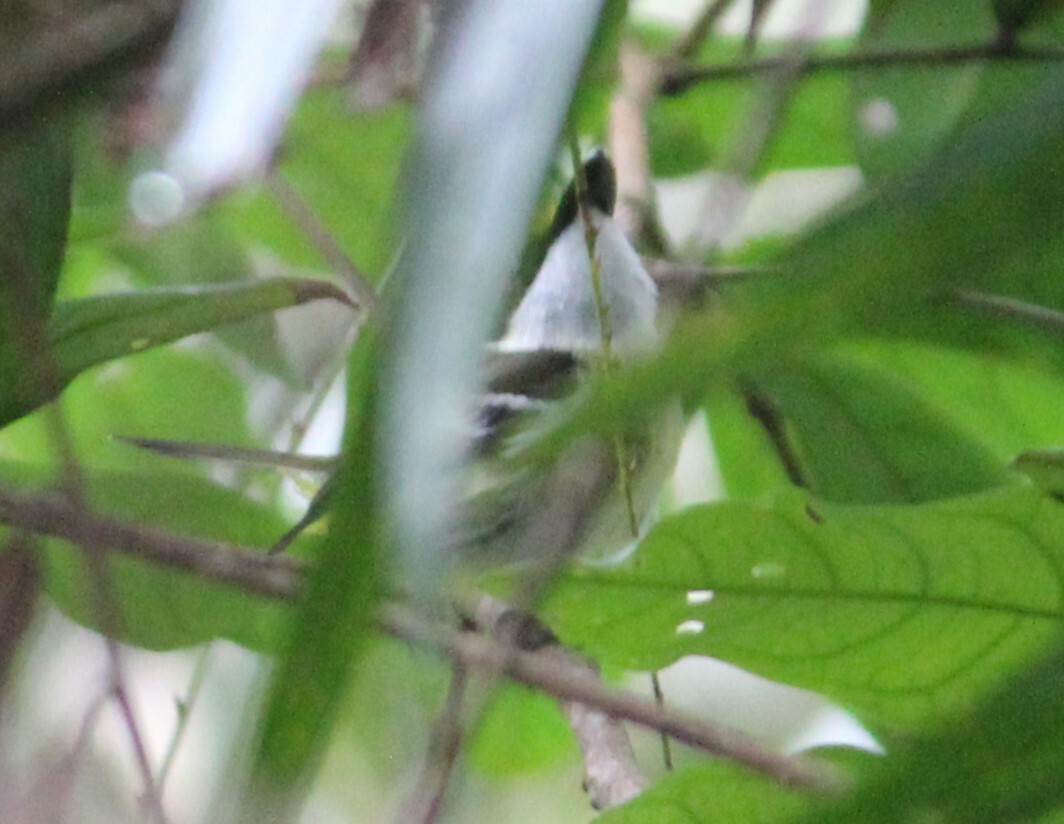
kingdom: Animalia
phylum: Chordata
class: Aves
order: Passeriformes
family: Machaerirhynchidae
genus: Machaerirhynchus
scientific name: Machaerirhynchus flaviventer
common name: Yellow-breasted boatbill
